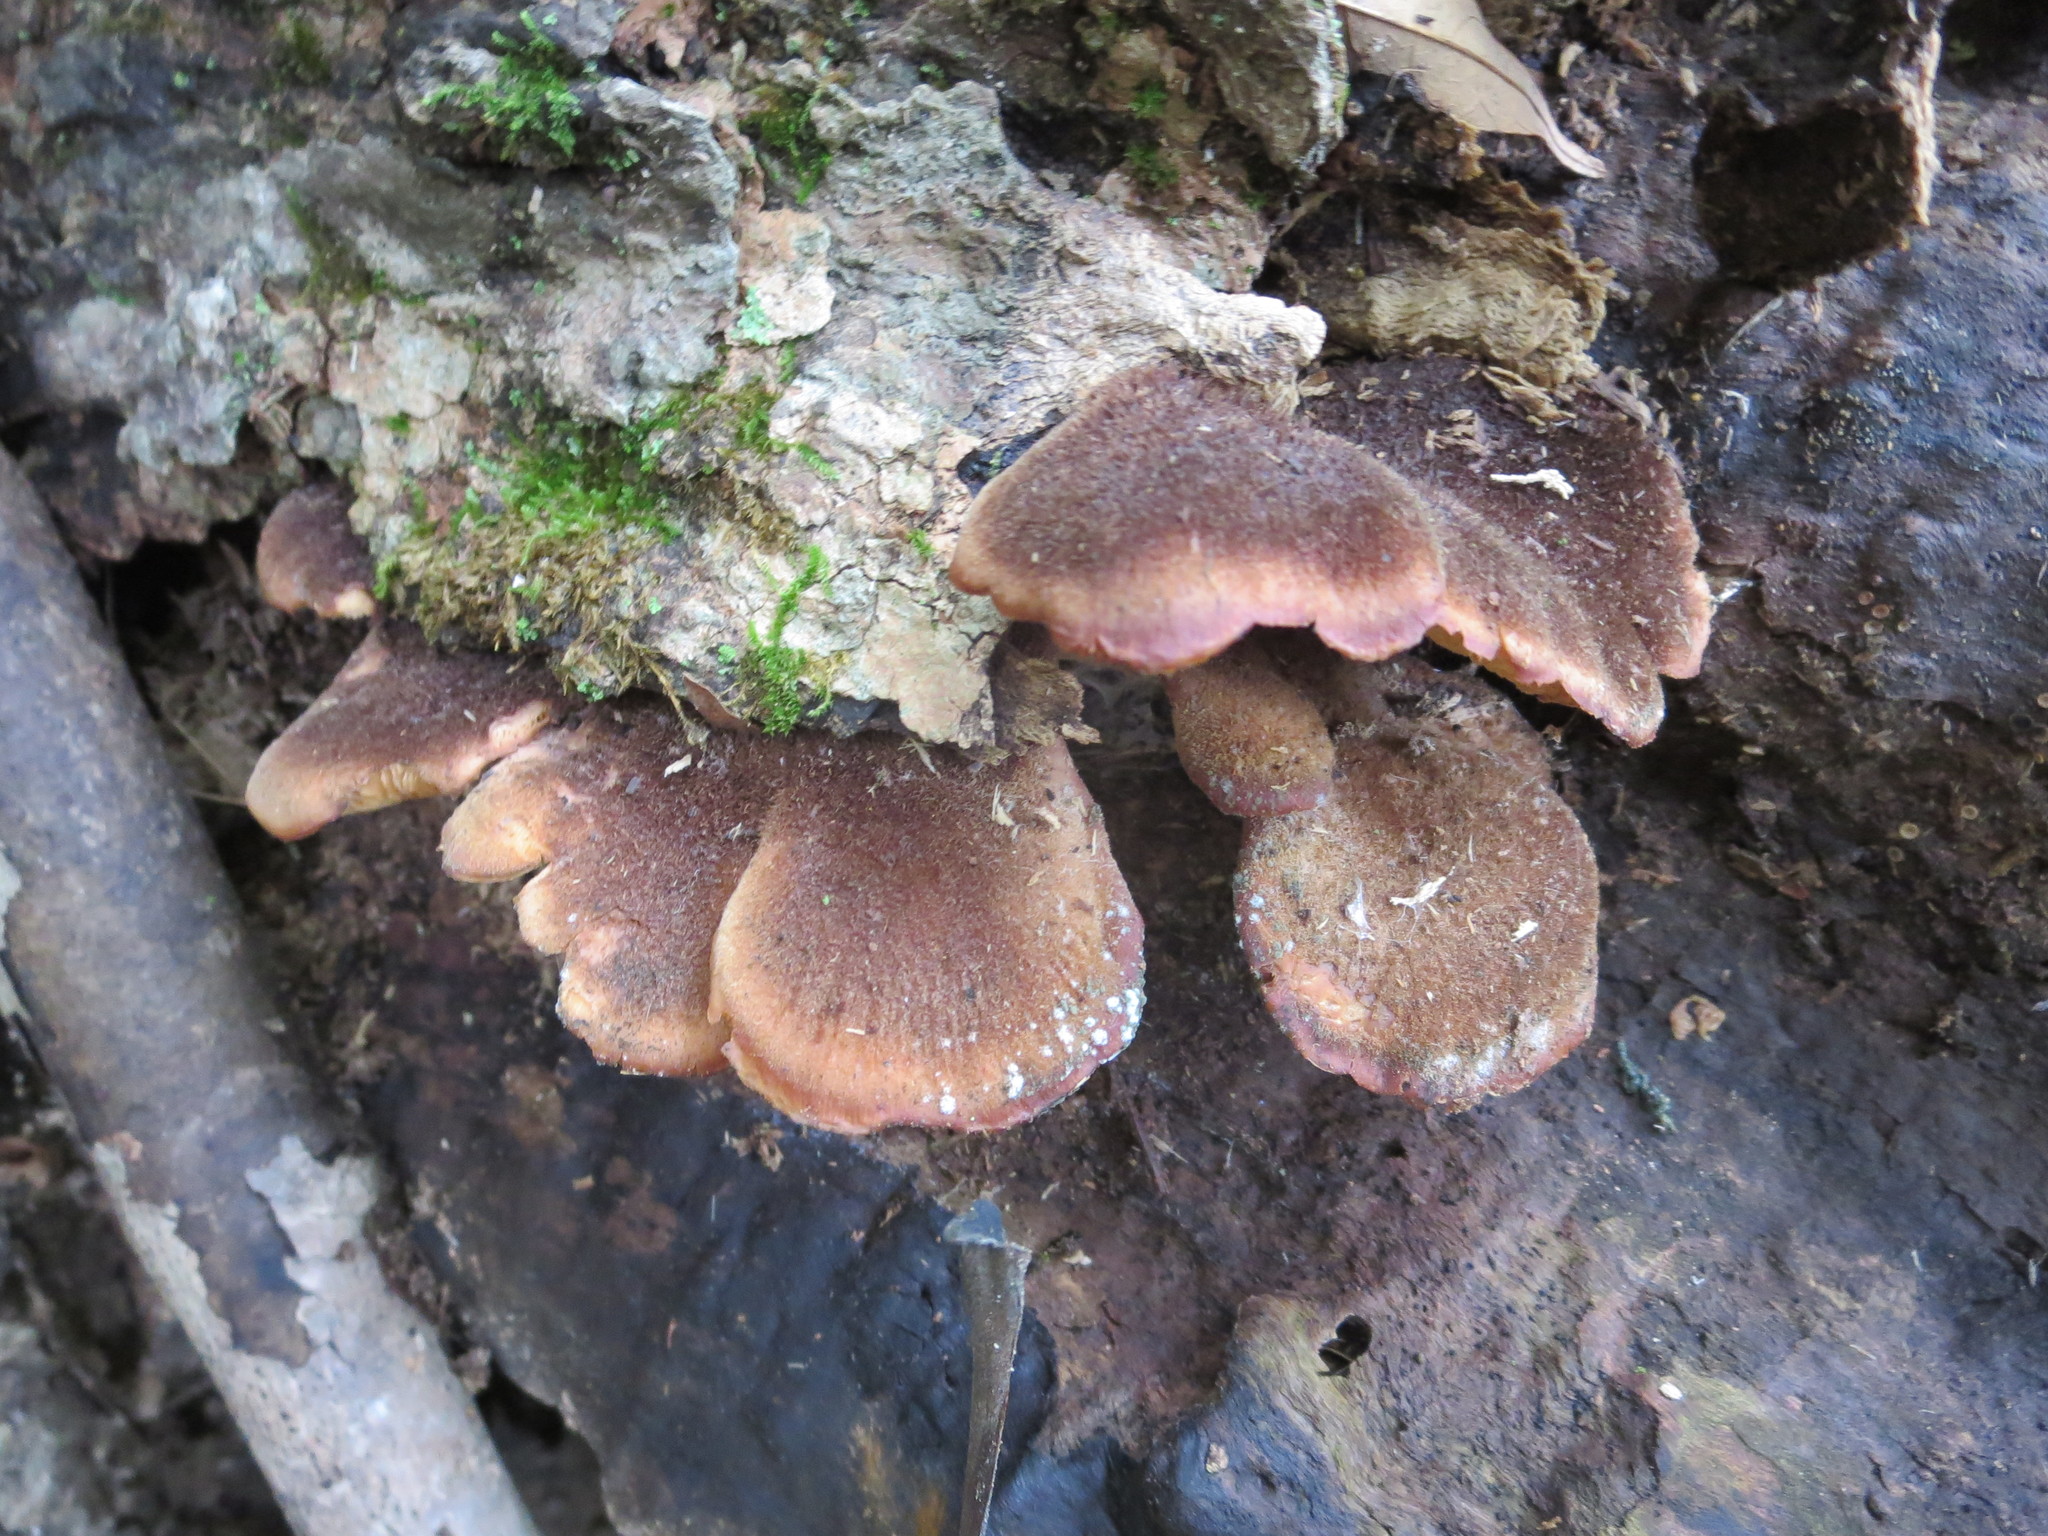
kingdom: Fungi
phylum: Basidiomycota
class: Agaricomycetes
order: Russulales
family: Auriscalpiaceae
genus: Lentinellus
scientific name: Lentinellus ursinus
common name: Bear lentinus
